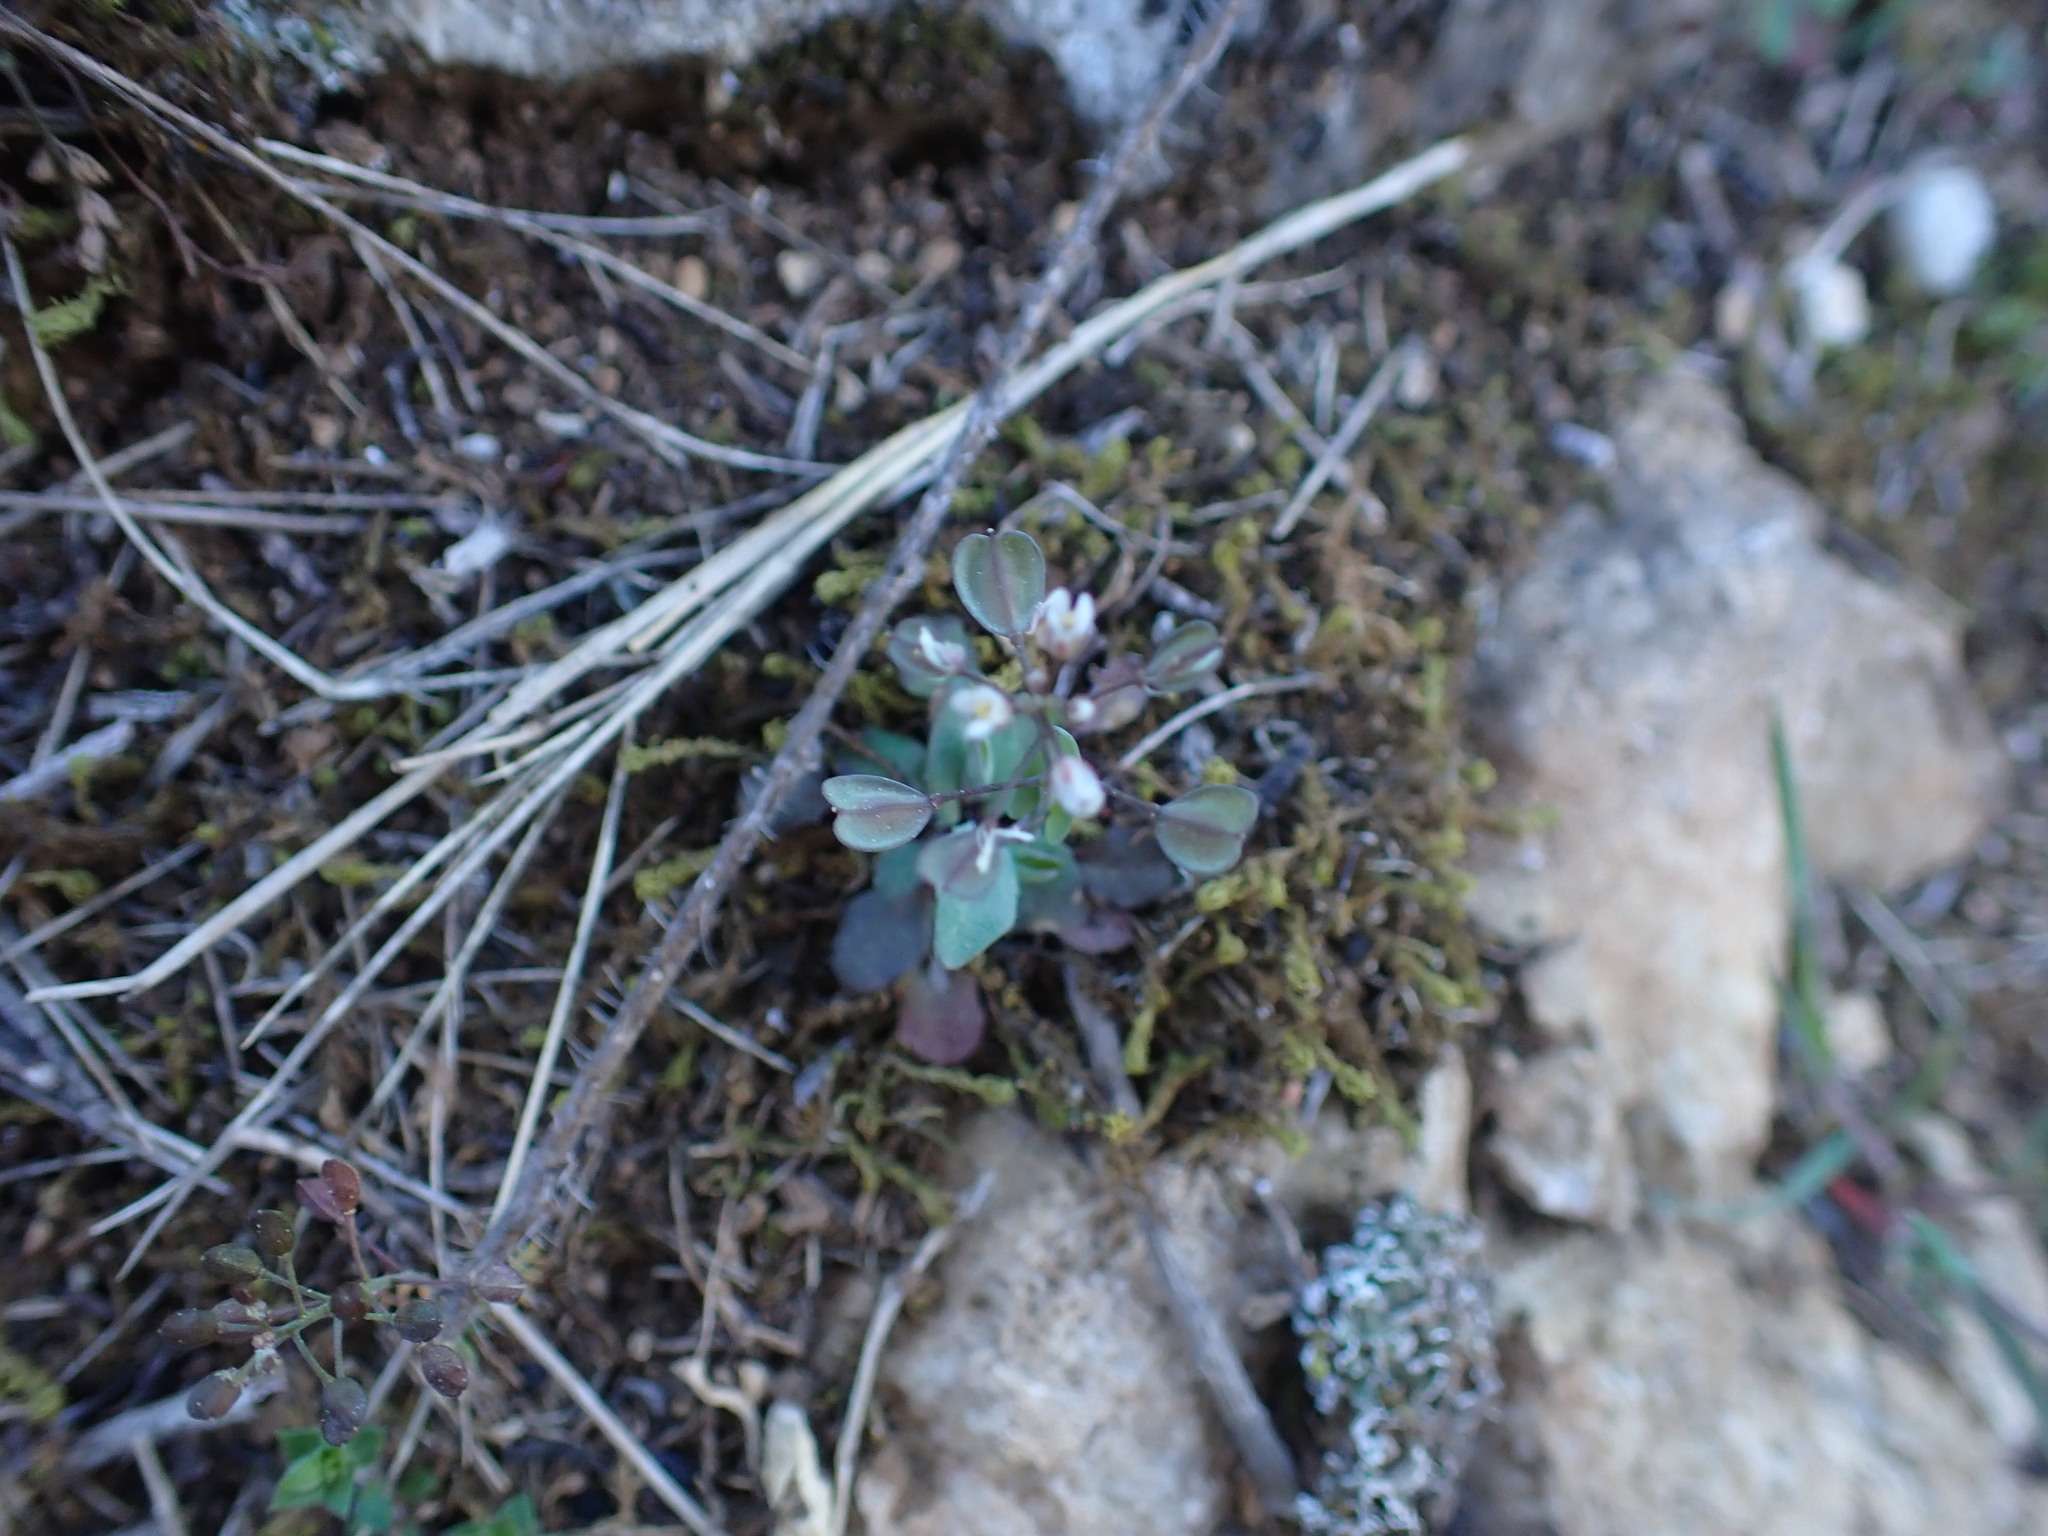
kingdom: Plantae
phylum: Tracheophyta
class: Magnoliopsida
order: Brassicales
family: Brassicaceae
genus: Noccaea
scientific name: Noccaea perfoliata
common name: Perfoliate pennycress
